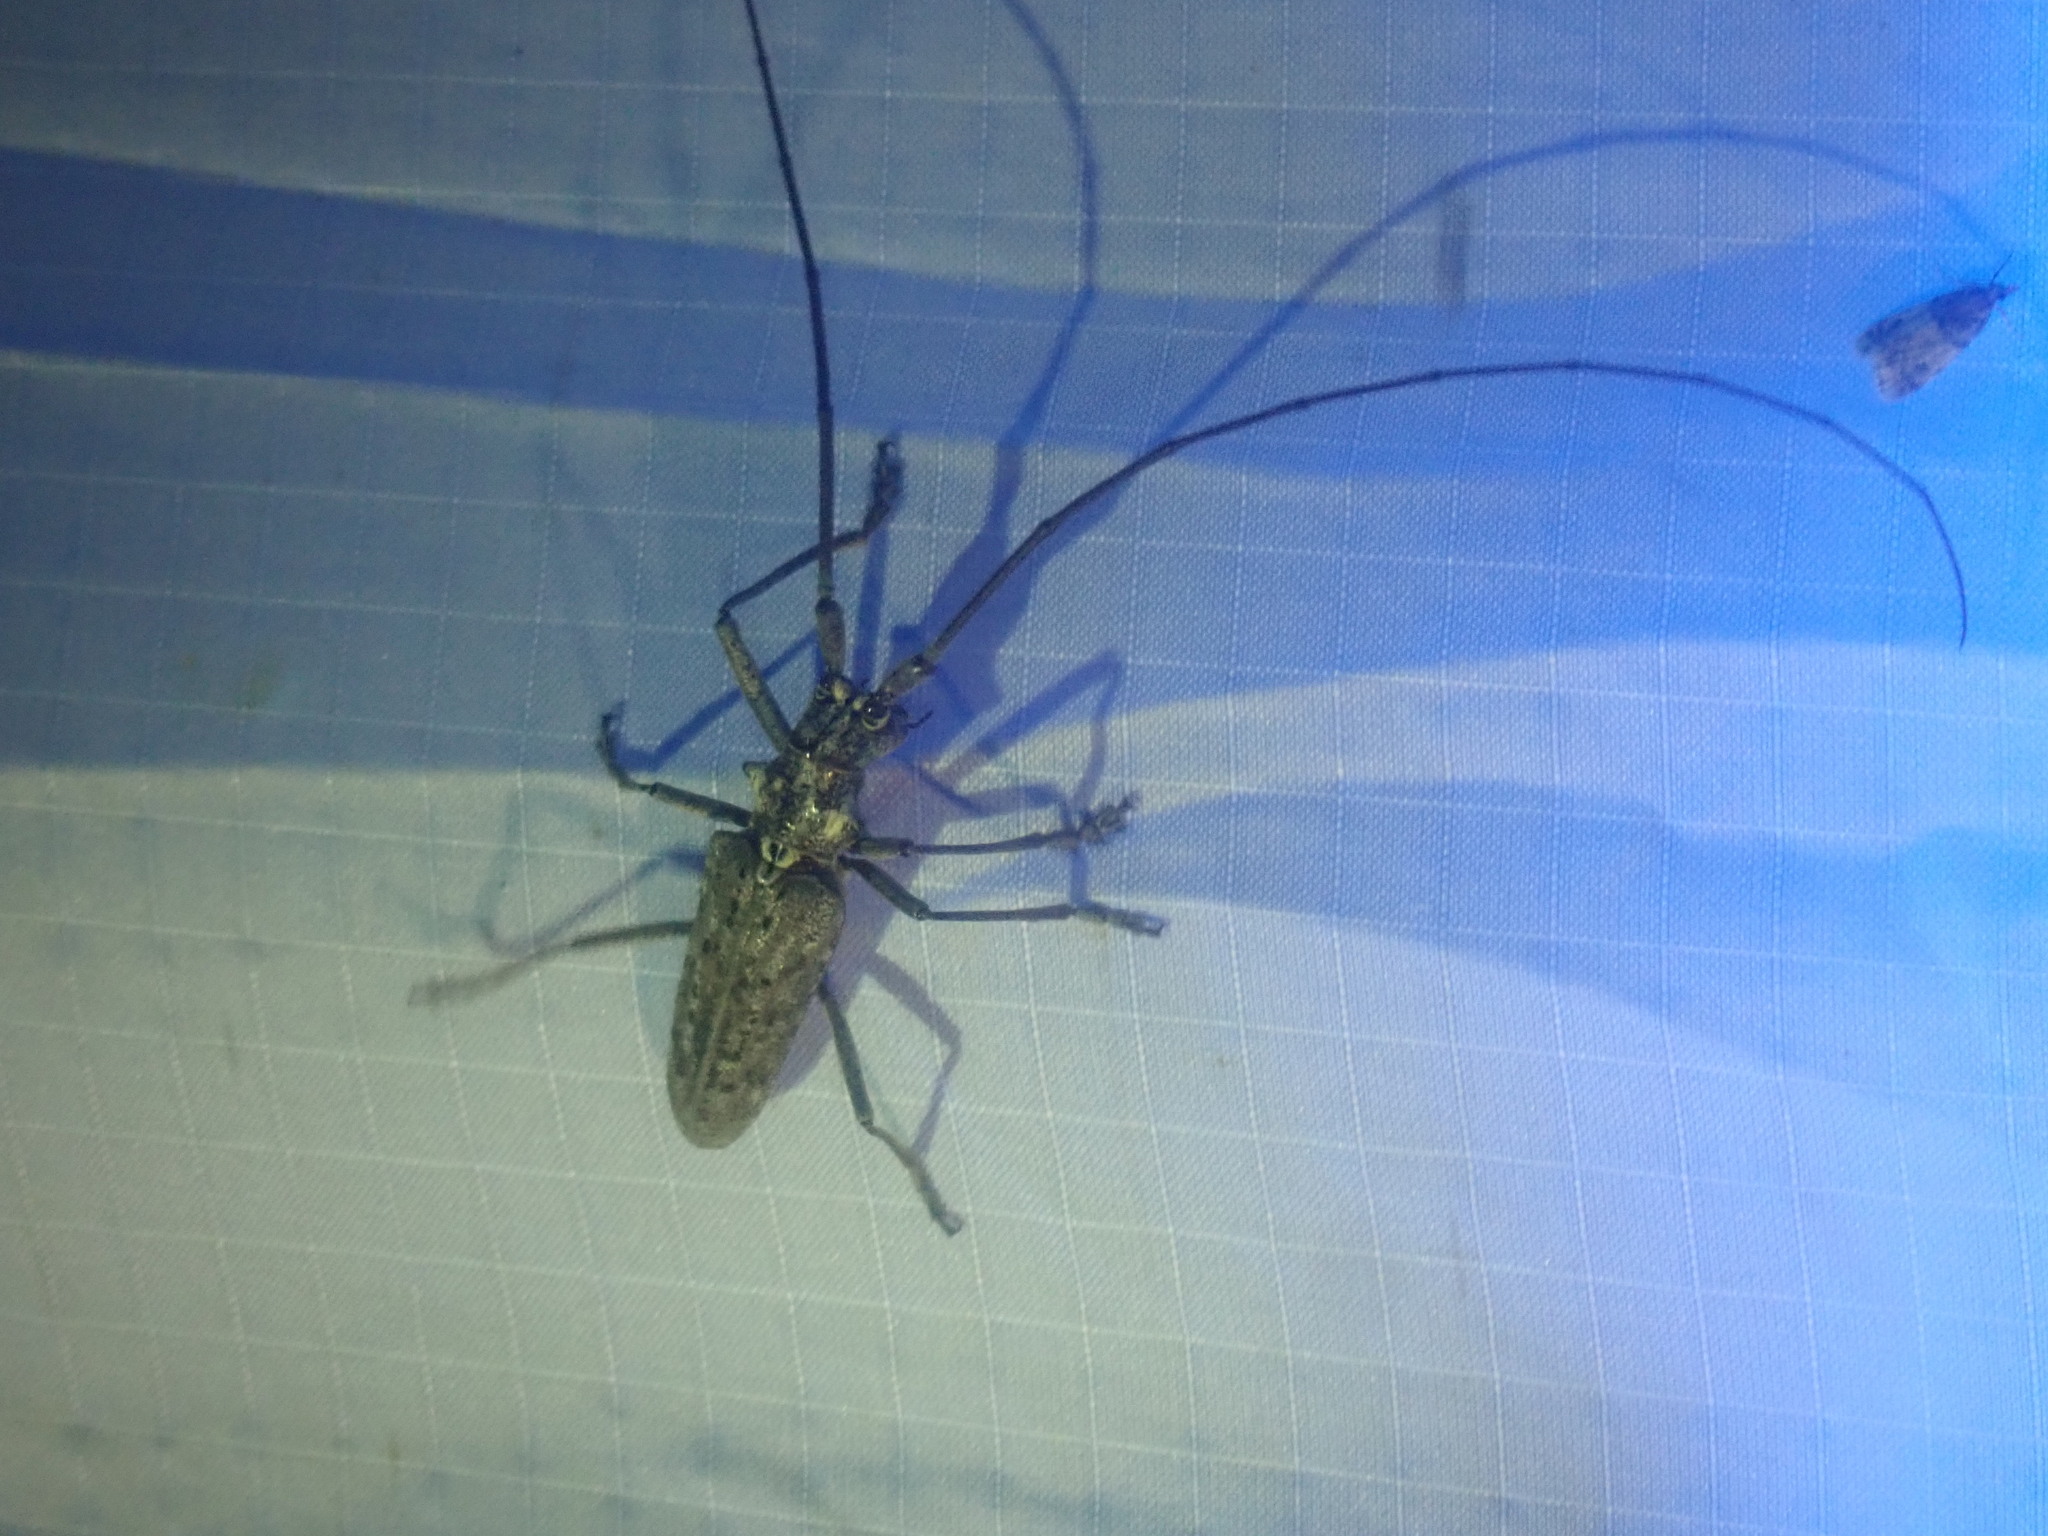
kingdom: Animalia
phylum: Arthropoda
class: Insecta
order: Coleoptera
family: Cerambycidae
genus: Monochamus
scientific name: Monochamus notatus
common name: Northeastern pine sawyer beetle
